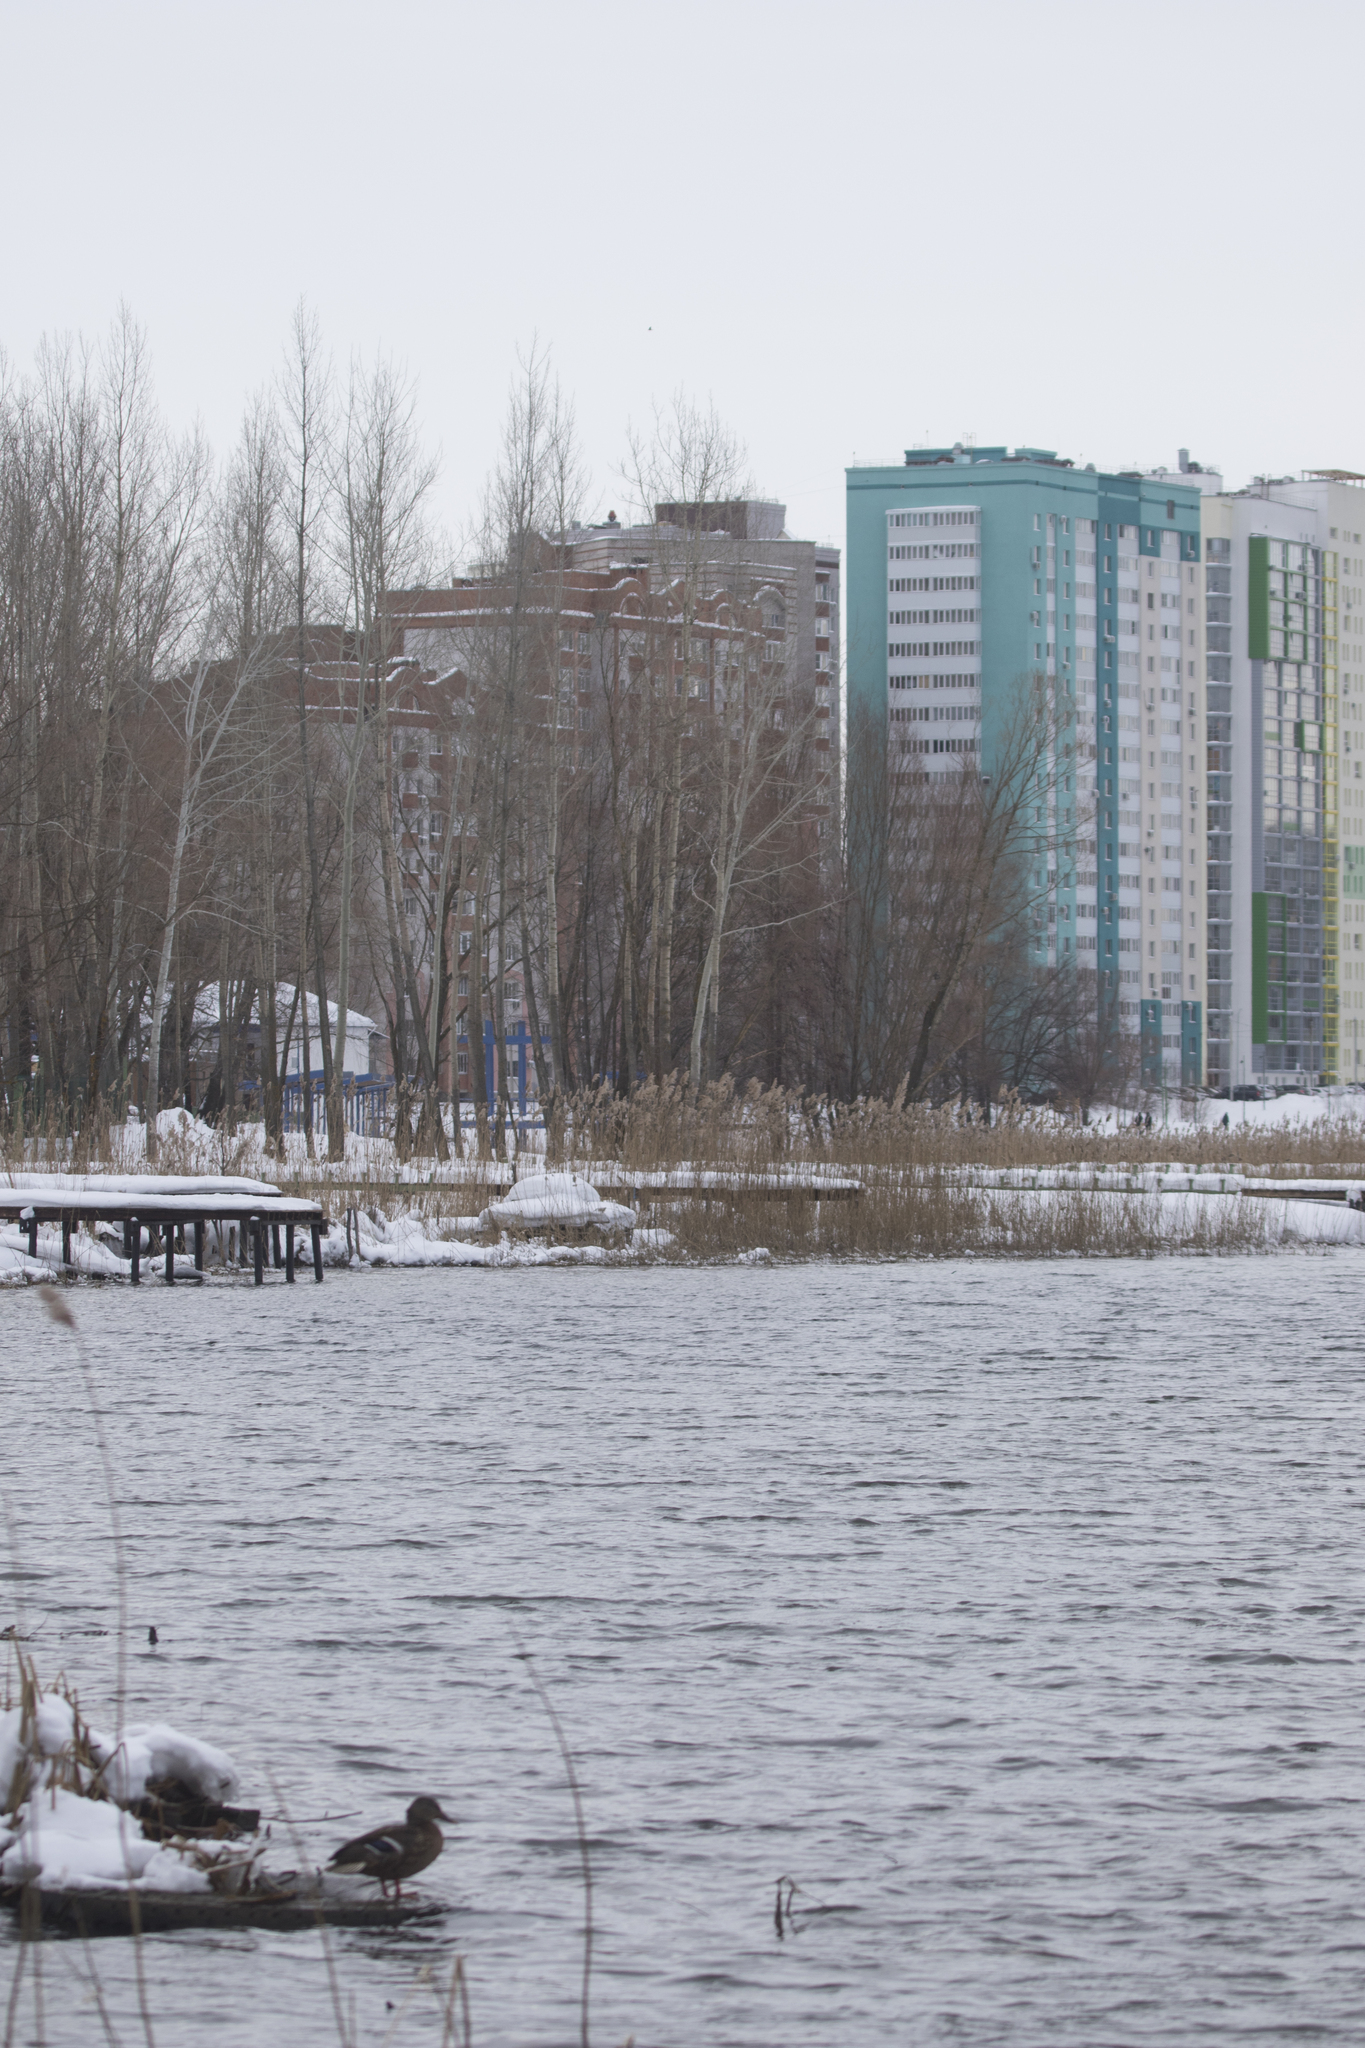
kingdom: Animalia
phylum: Chordata
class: Aves
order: Anseriformes
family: Anatidae
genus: Anas
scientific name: Anas platyrhynchos
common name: Mallard
